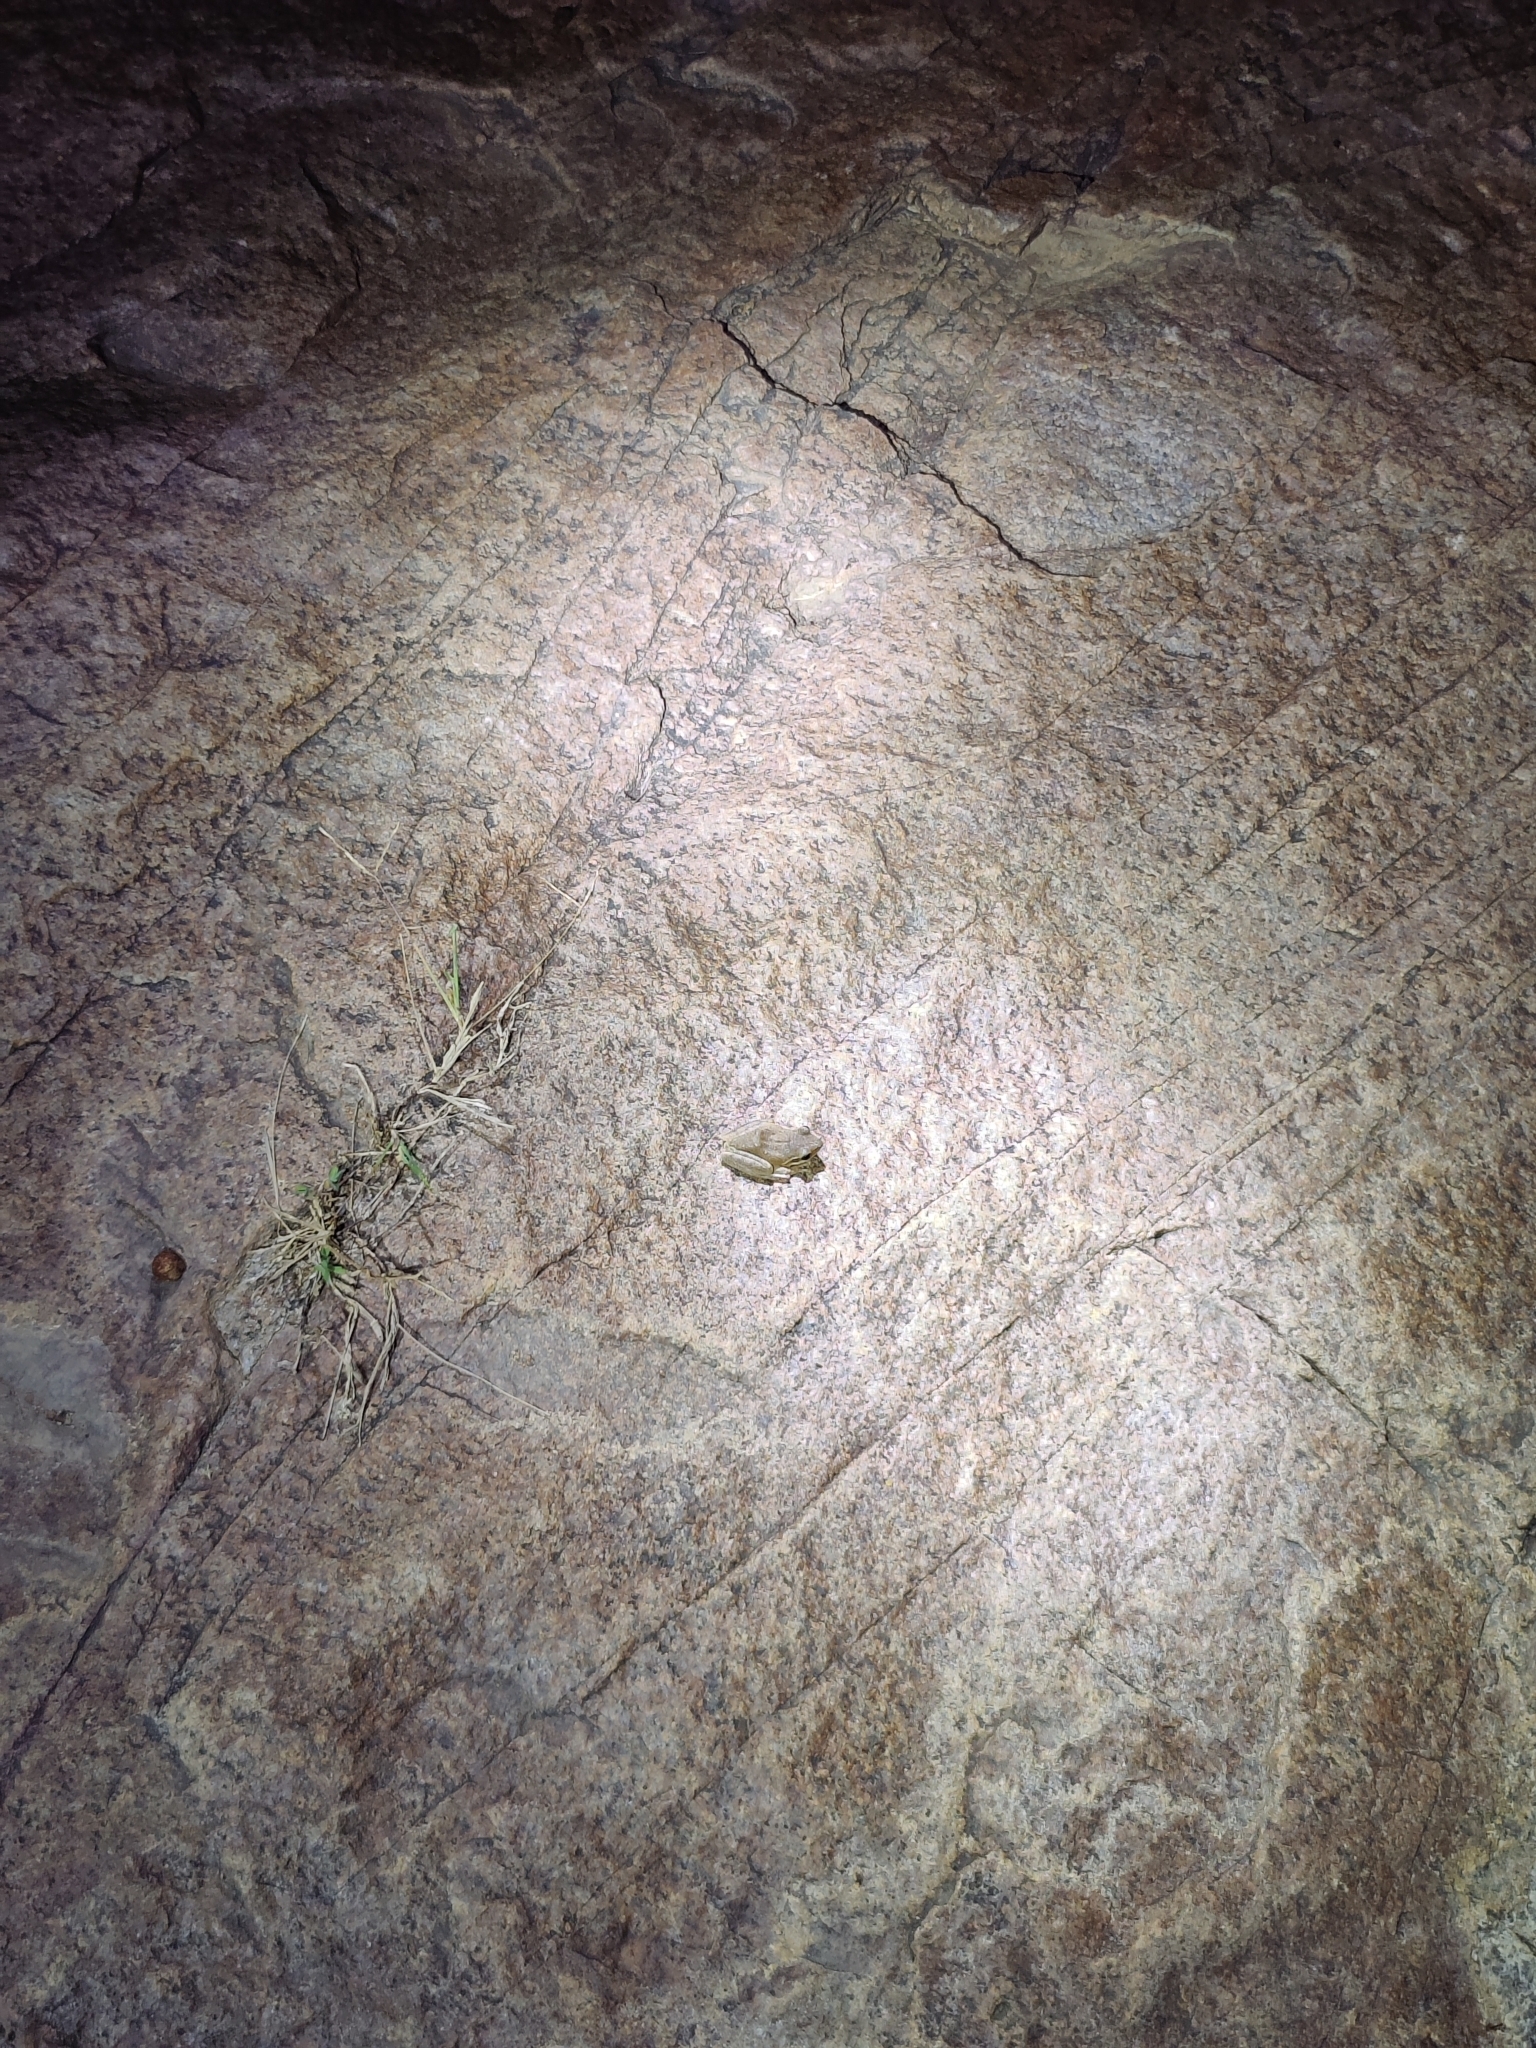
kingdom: Animalia
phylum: Chordata
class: Amphibia
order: Anura
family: Rhacophoridae
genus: Polypedates
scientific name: Polypedates maculatus
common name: Himalayan tree frog
